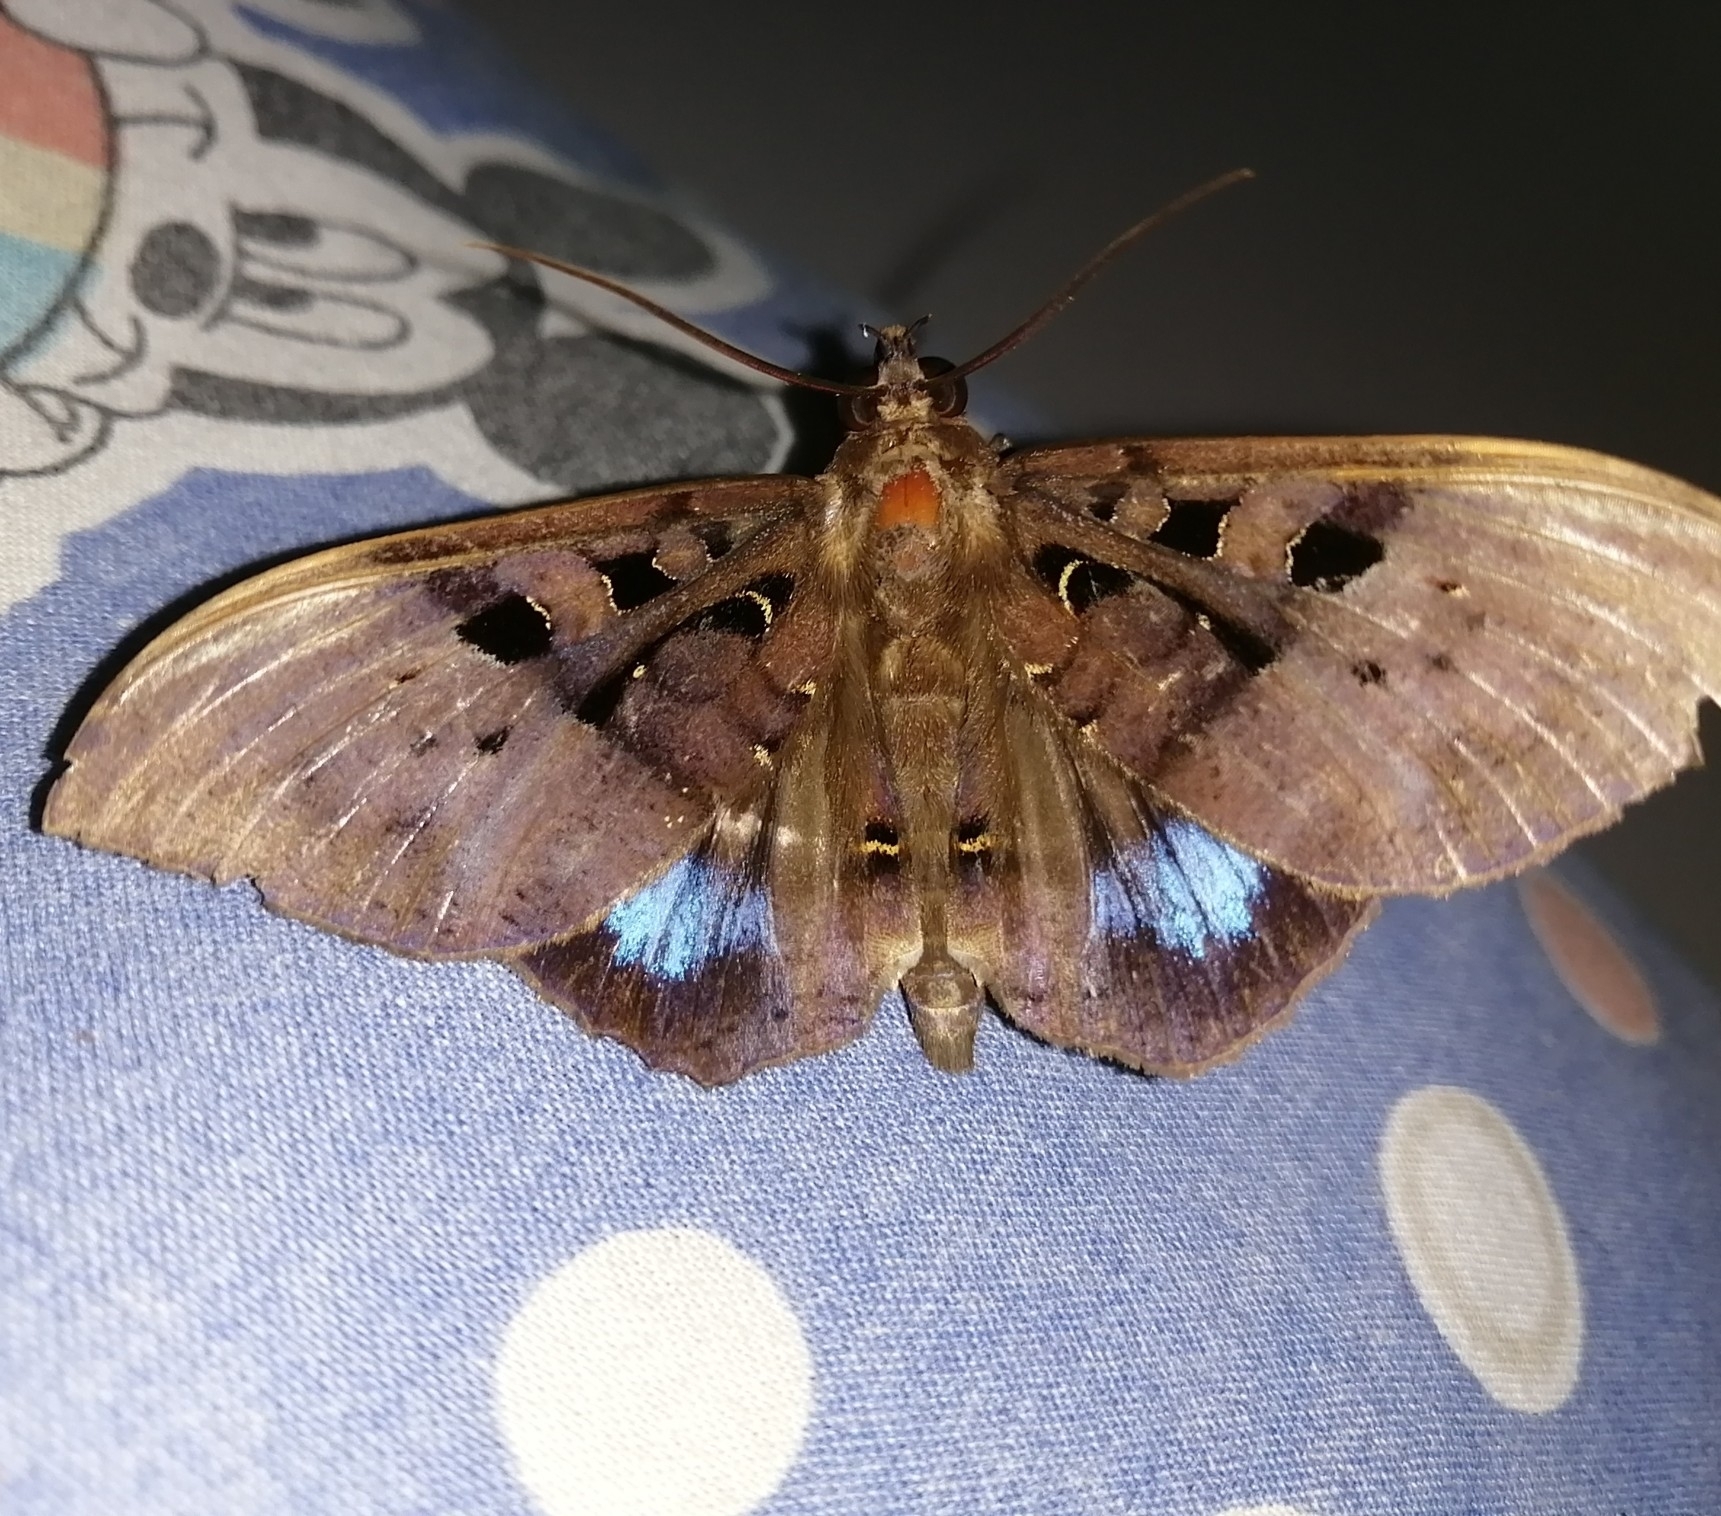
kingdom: Animalia
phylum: Arthropoda
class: Insecta
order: Lepidoptera
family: Erebidae
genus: Ischyja
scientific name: Ischyja marapok
